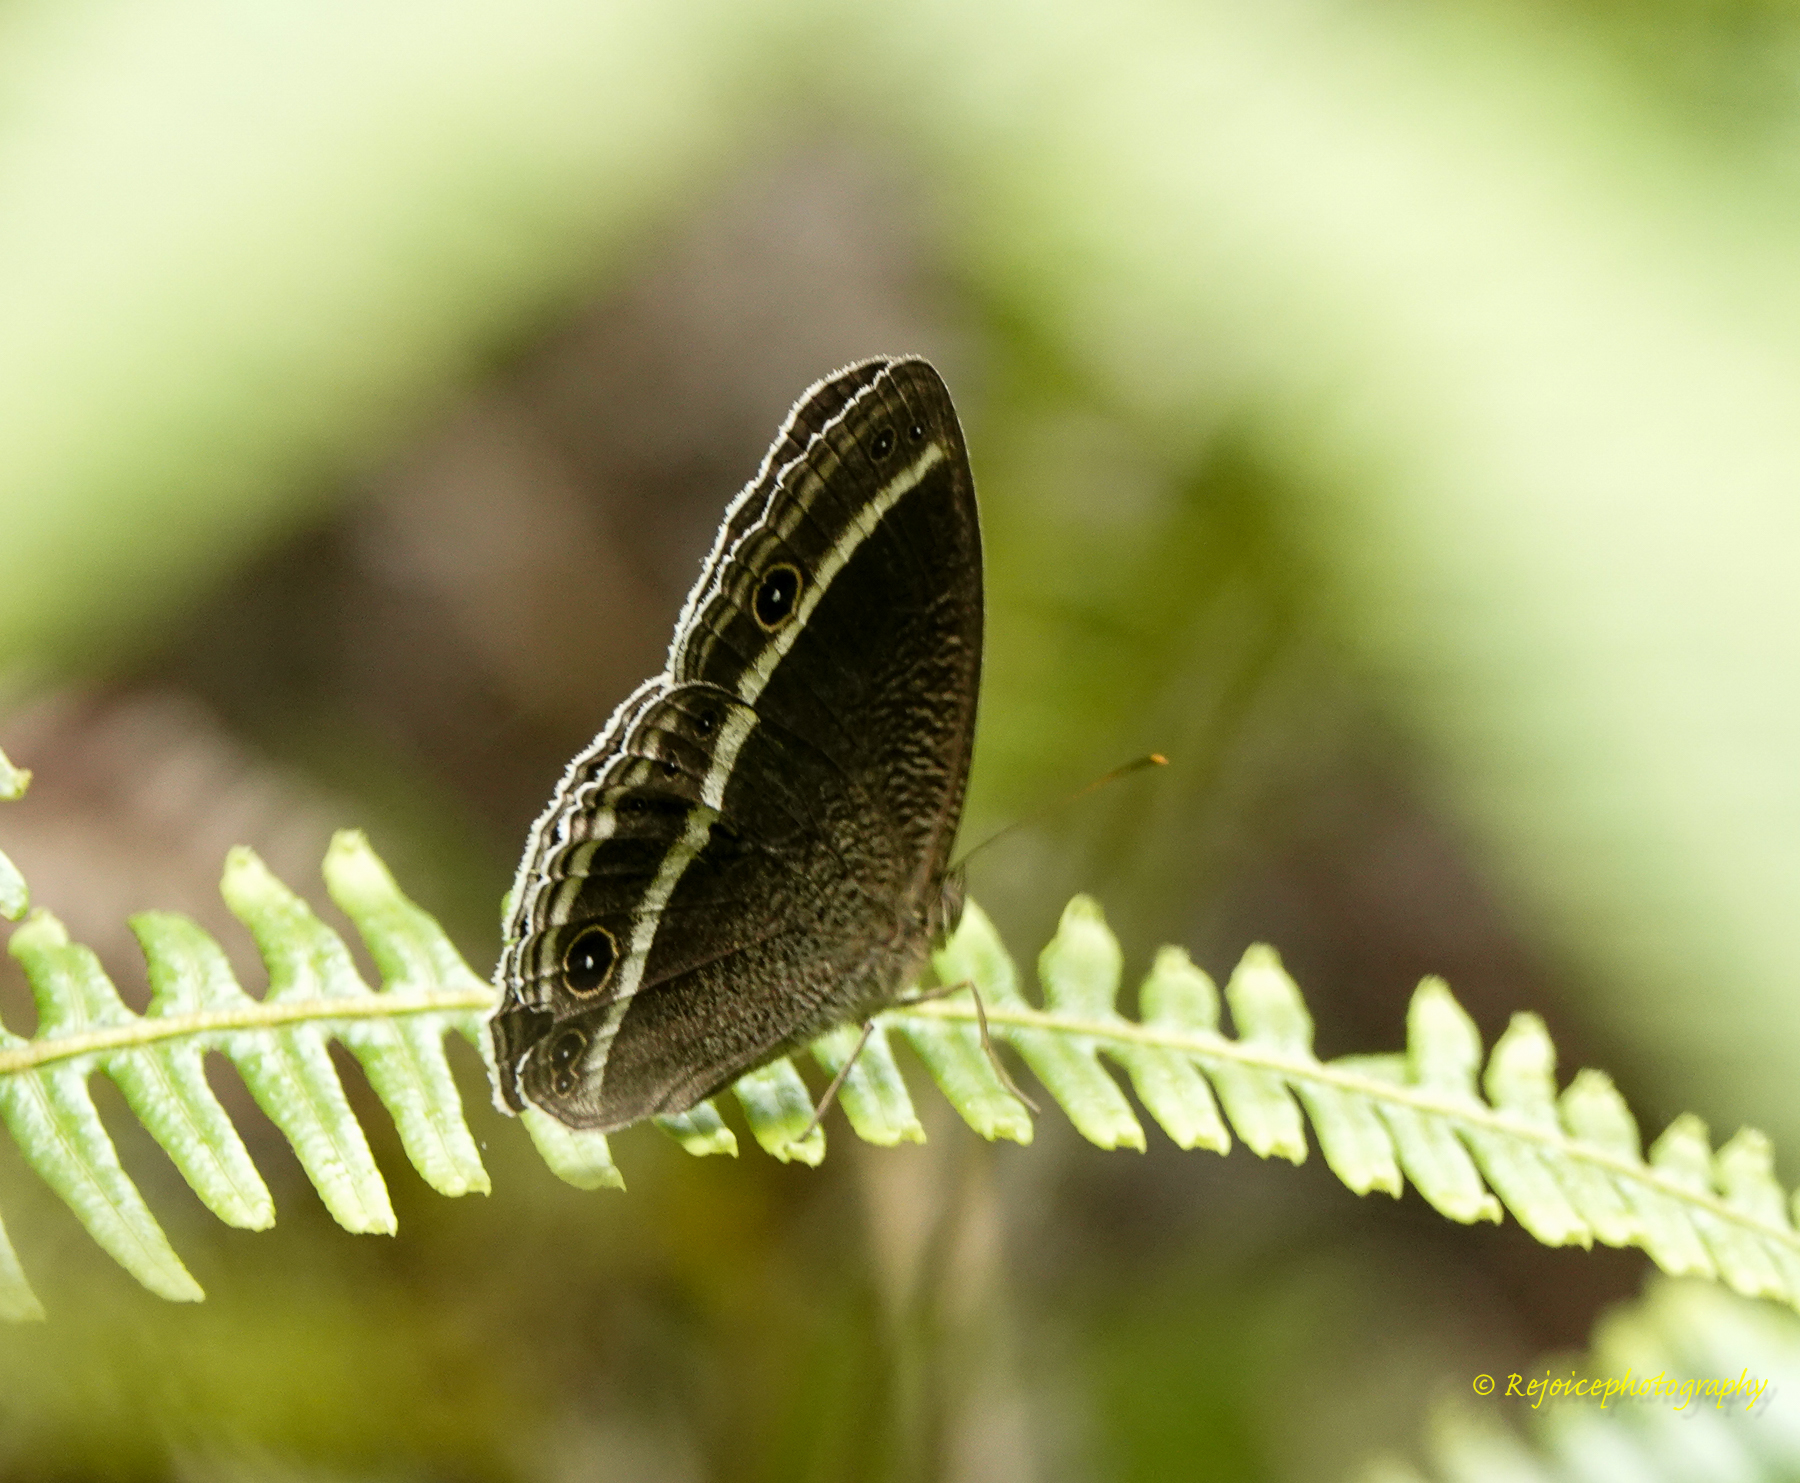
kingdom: Animalia
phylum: Arthropoda
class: Insecta
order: Lepidoptera
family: Nymphalidae
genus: Mycalesis
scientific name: Mycalesis Telinga spec
